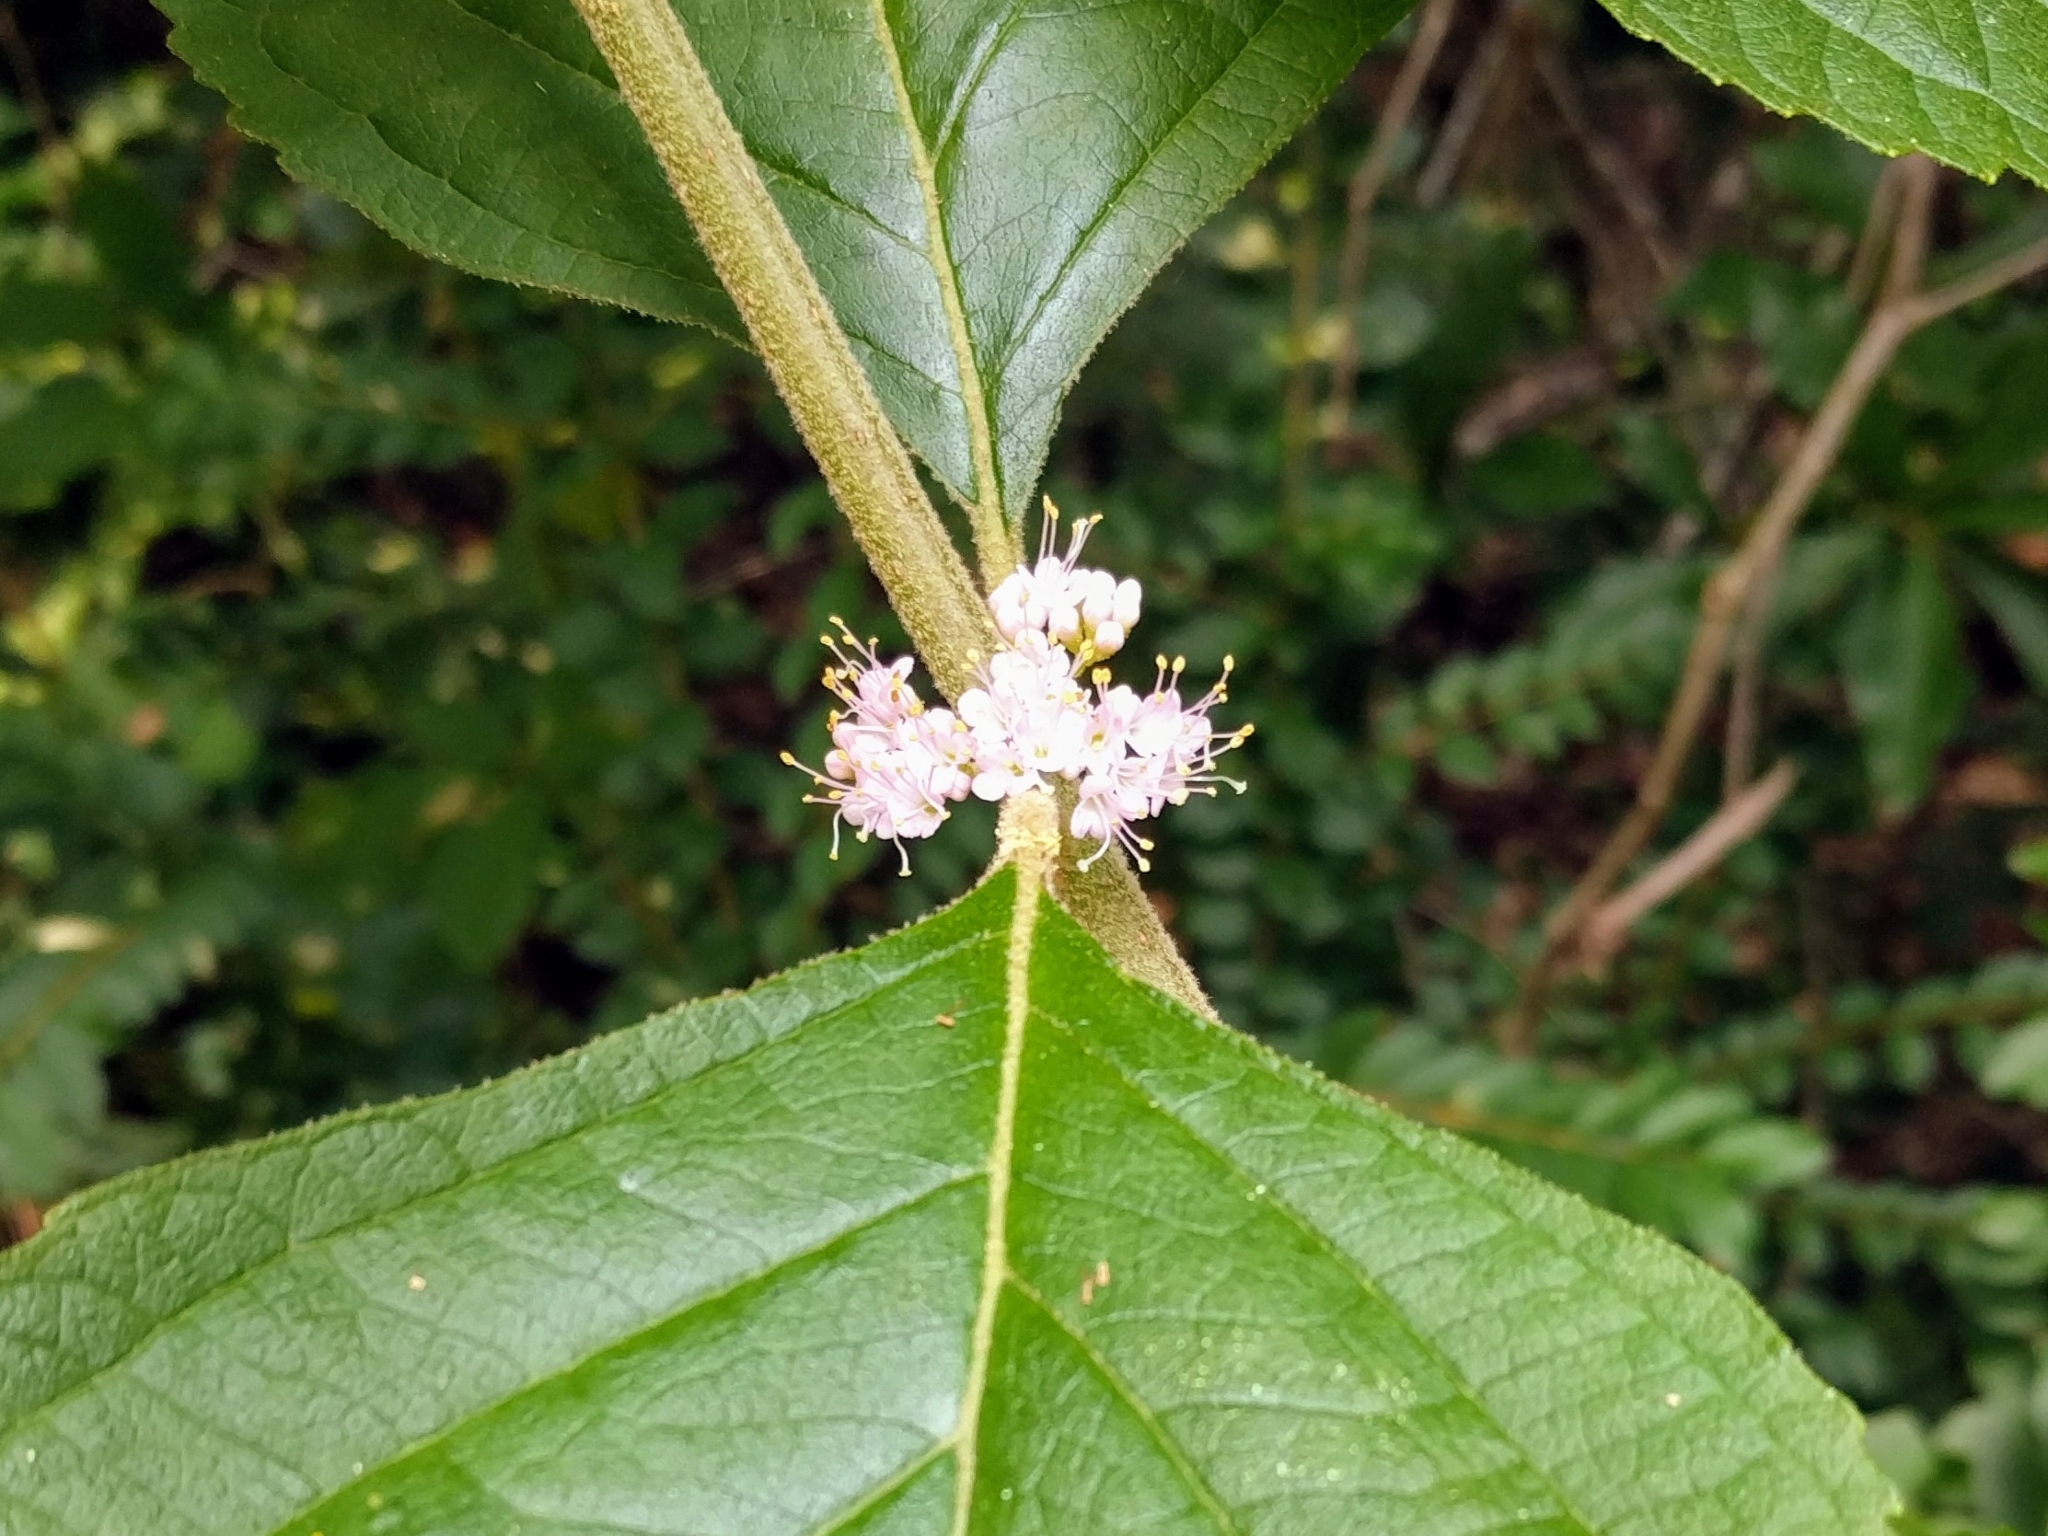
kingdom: Plantae
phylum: Tracheophyta
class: Magnoliopsida
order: Lamiales
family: Lamiaceae
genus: Callicarpa
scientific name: Callicarpa americana
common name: American beautyberry
